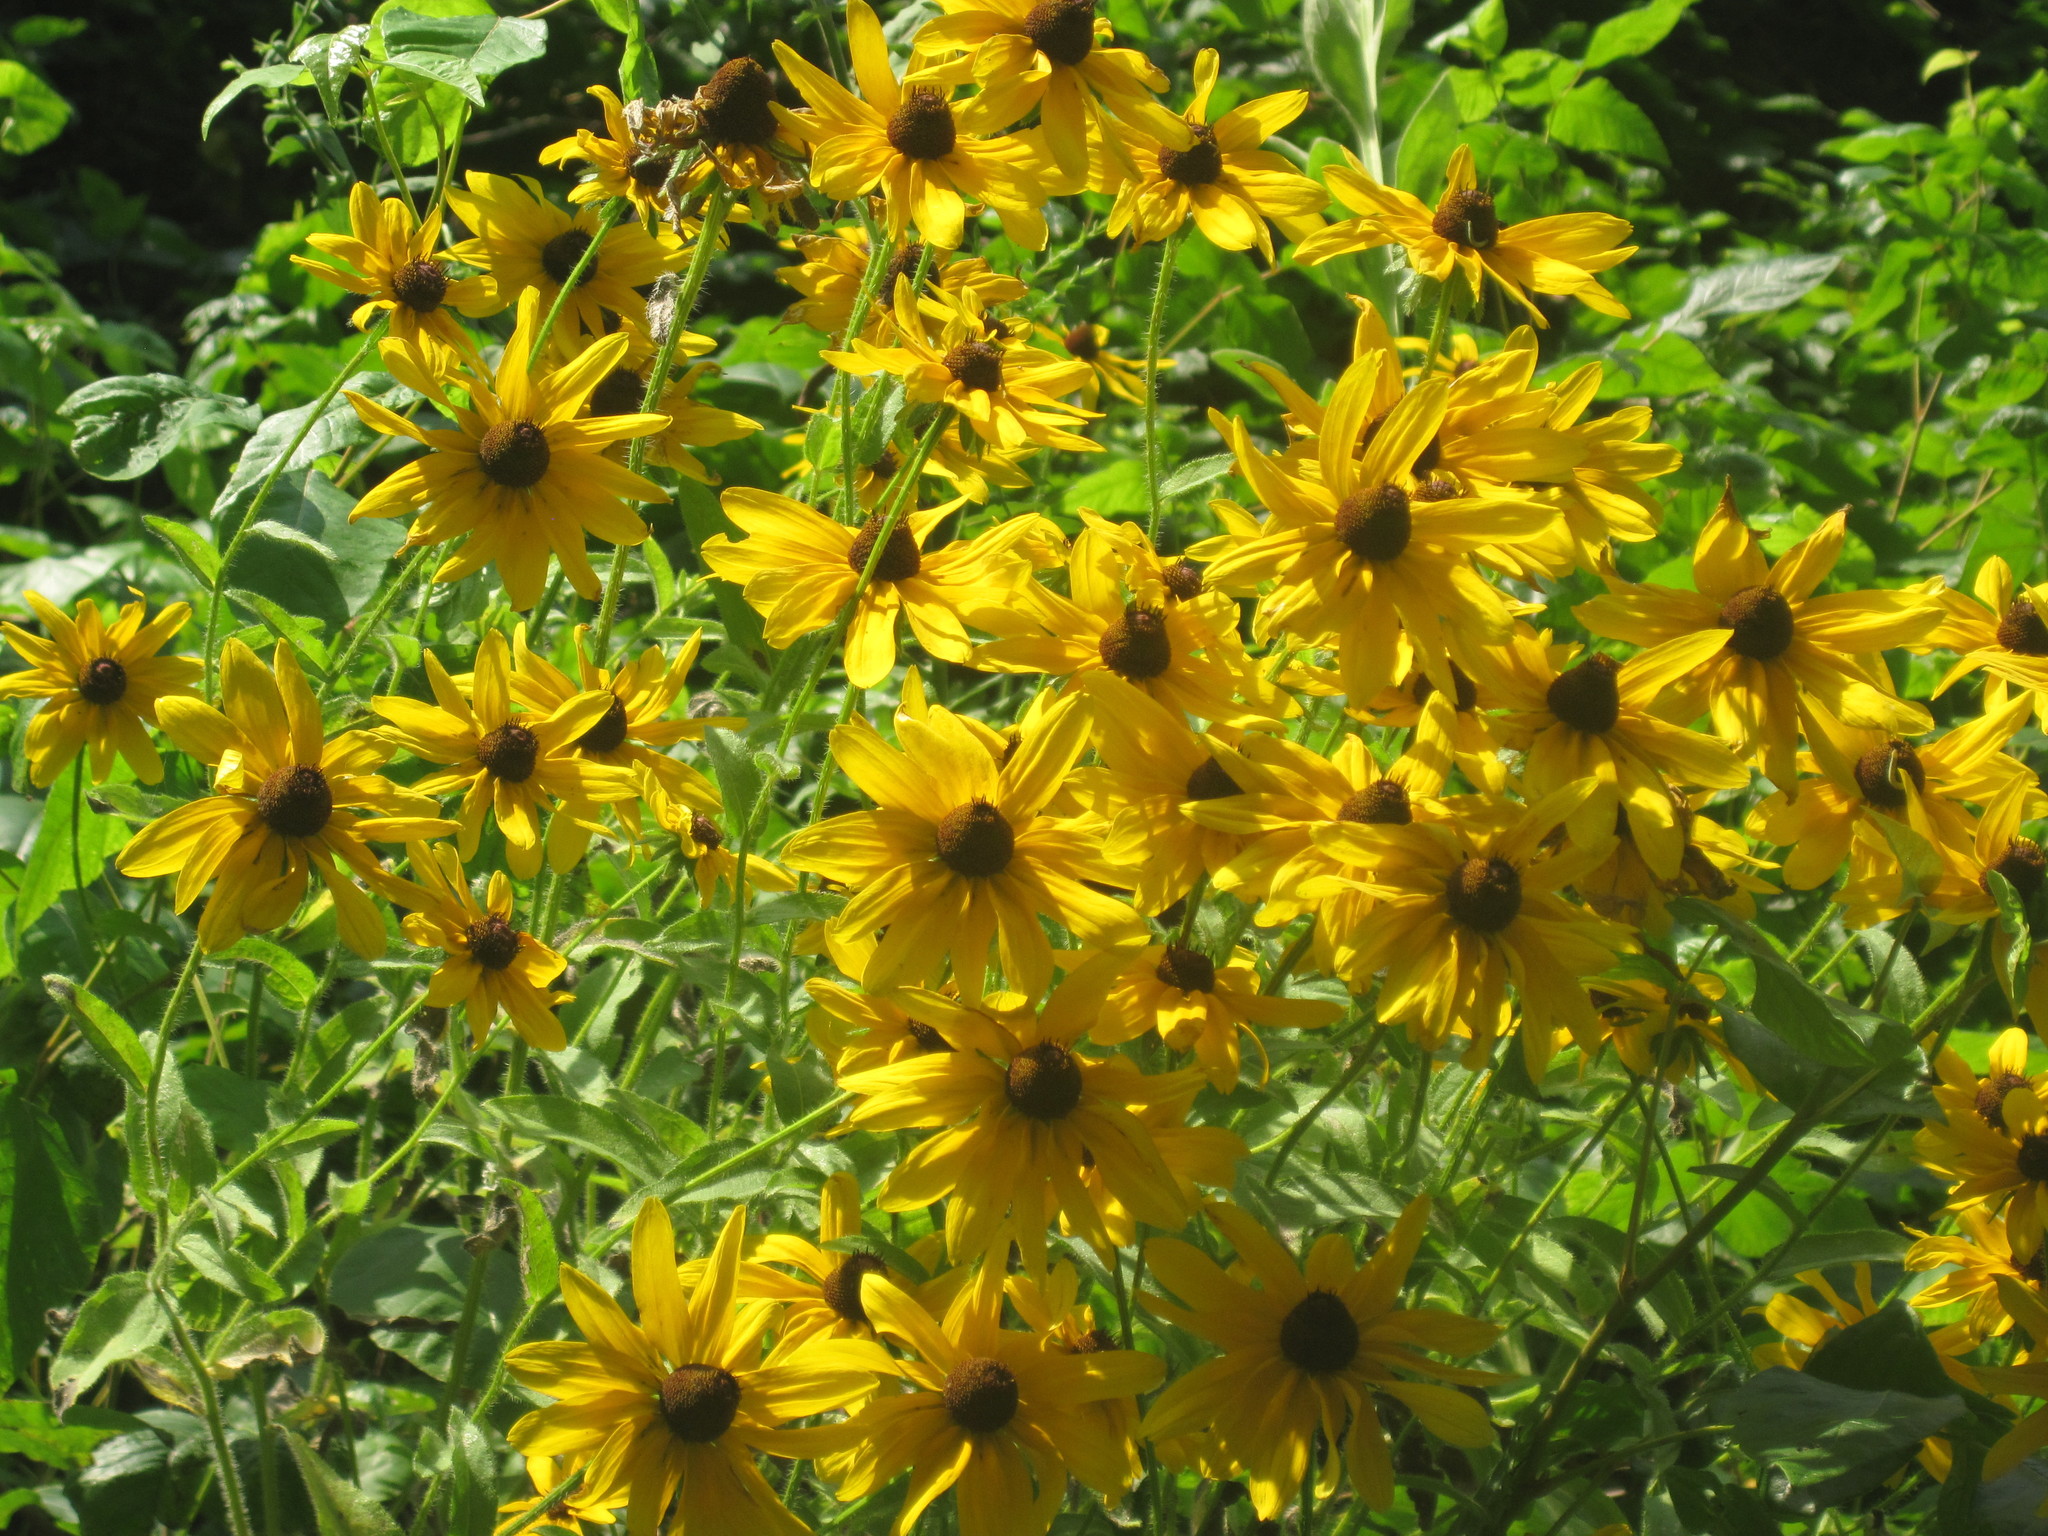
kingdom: Plantae
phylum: Tracheophyta
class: Magnoliopsida
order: Asterales
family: Asteraceae
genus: Rudbeckia
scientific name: Rudbeckia hirta
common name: Black-eyed-susan
